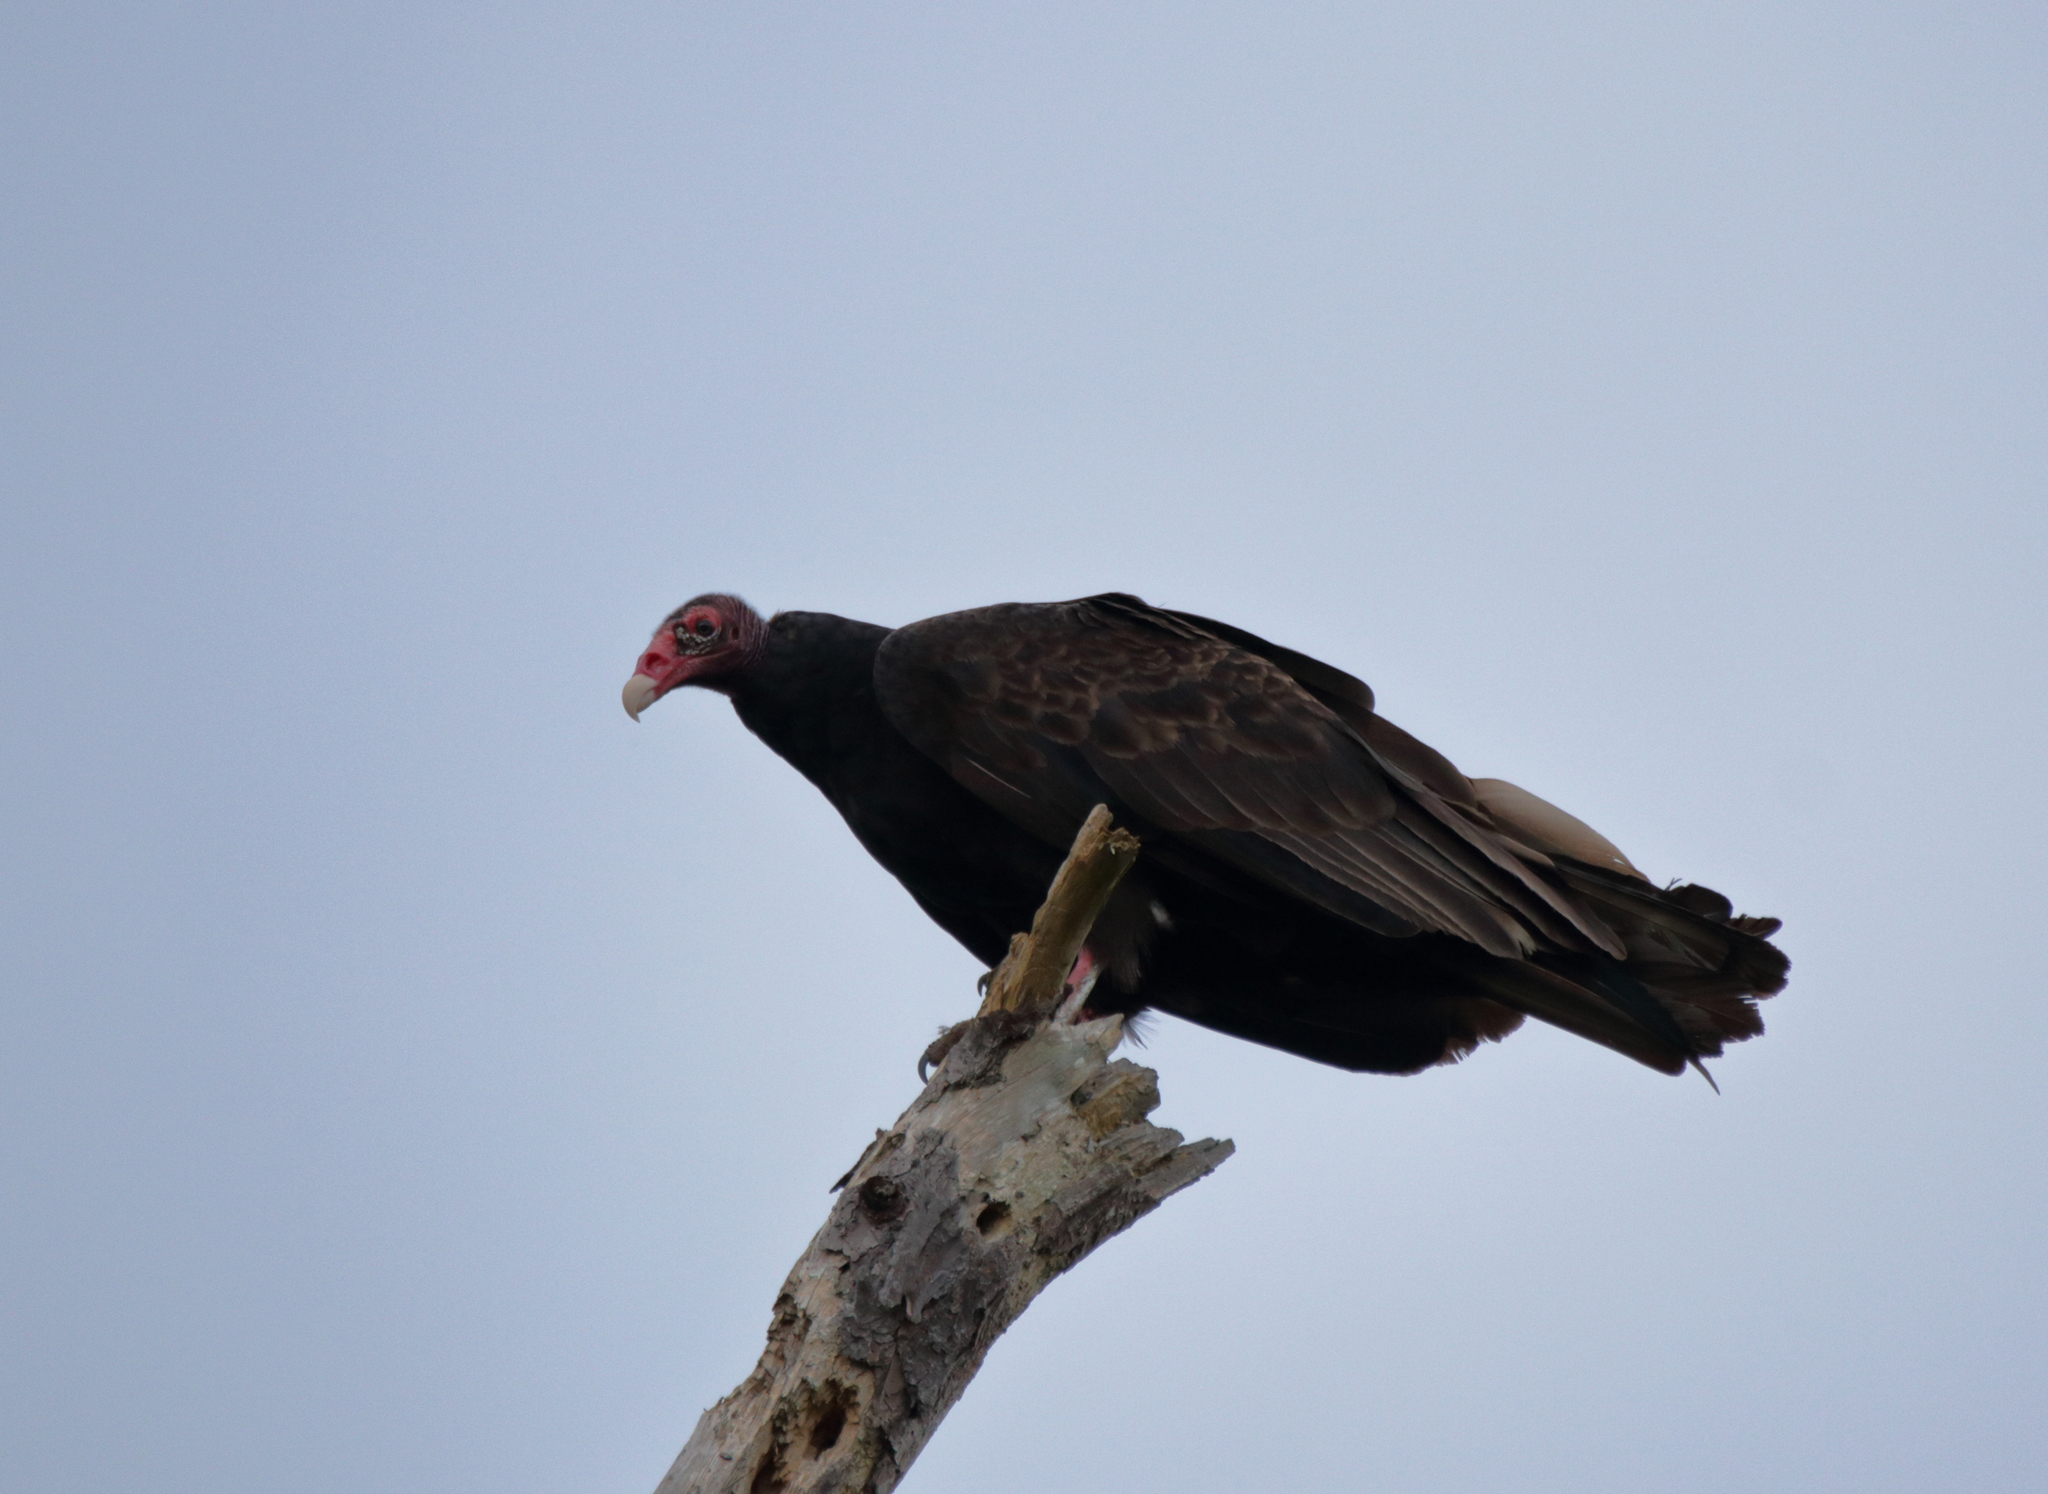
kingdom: Animalia
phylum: Chordata
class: Aves
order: Accipitriformes
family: Cathartidae
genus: Cathartes
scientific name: Cathartes aura
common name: Turkey vulture
